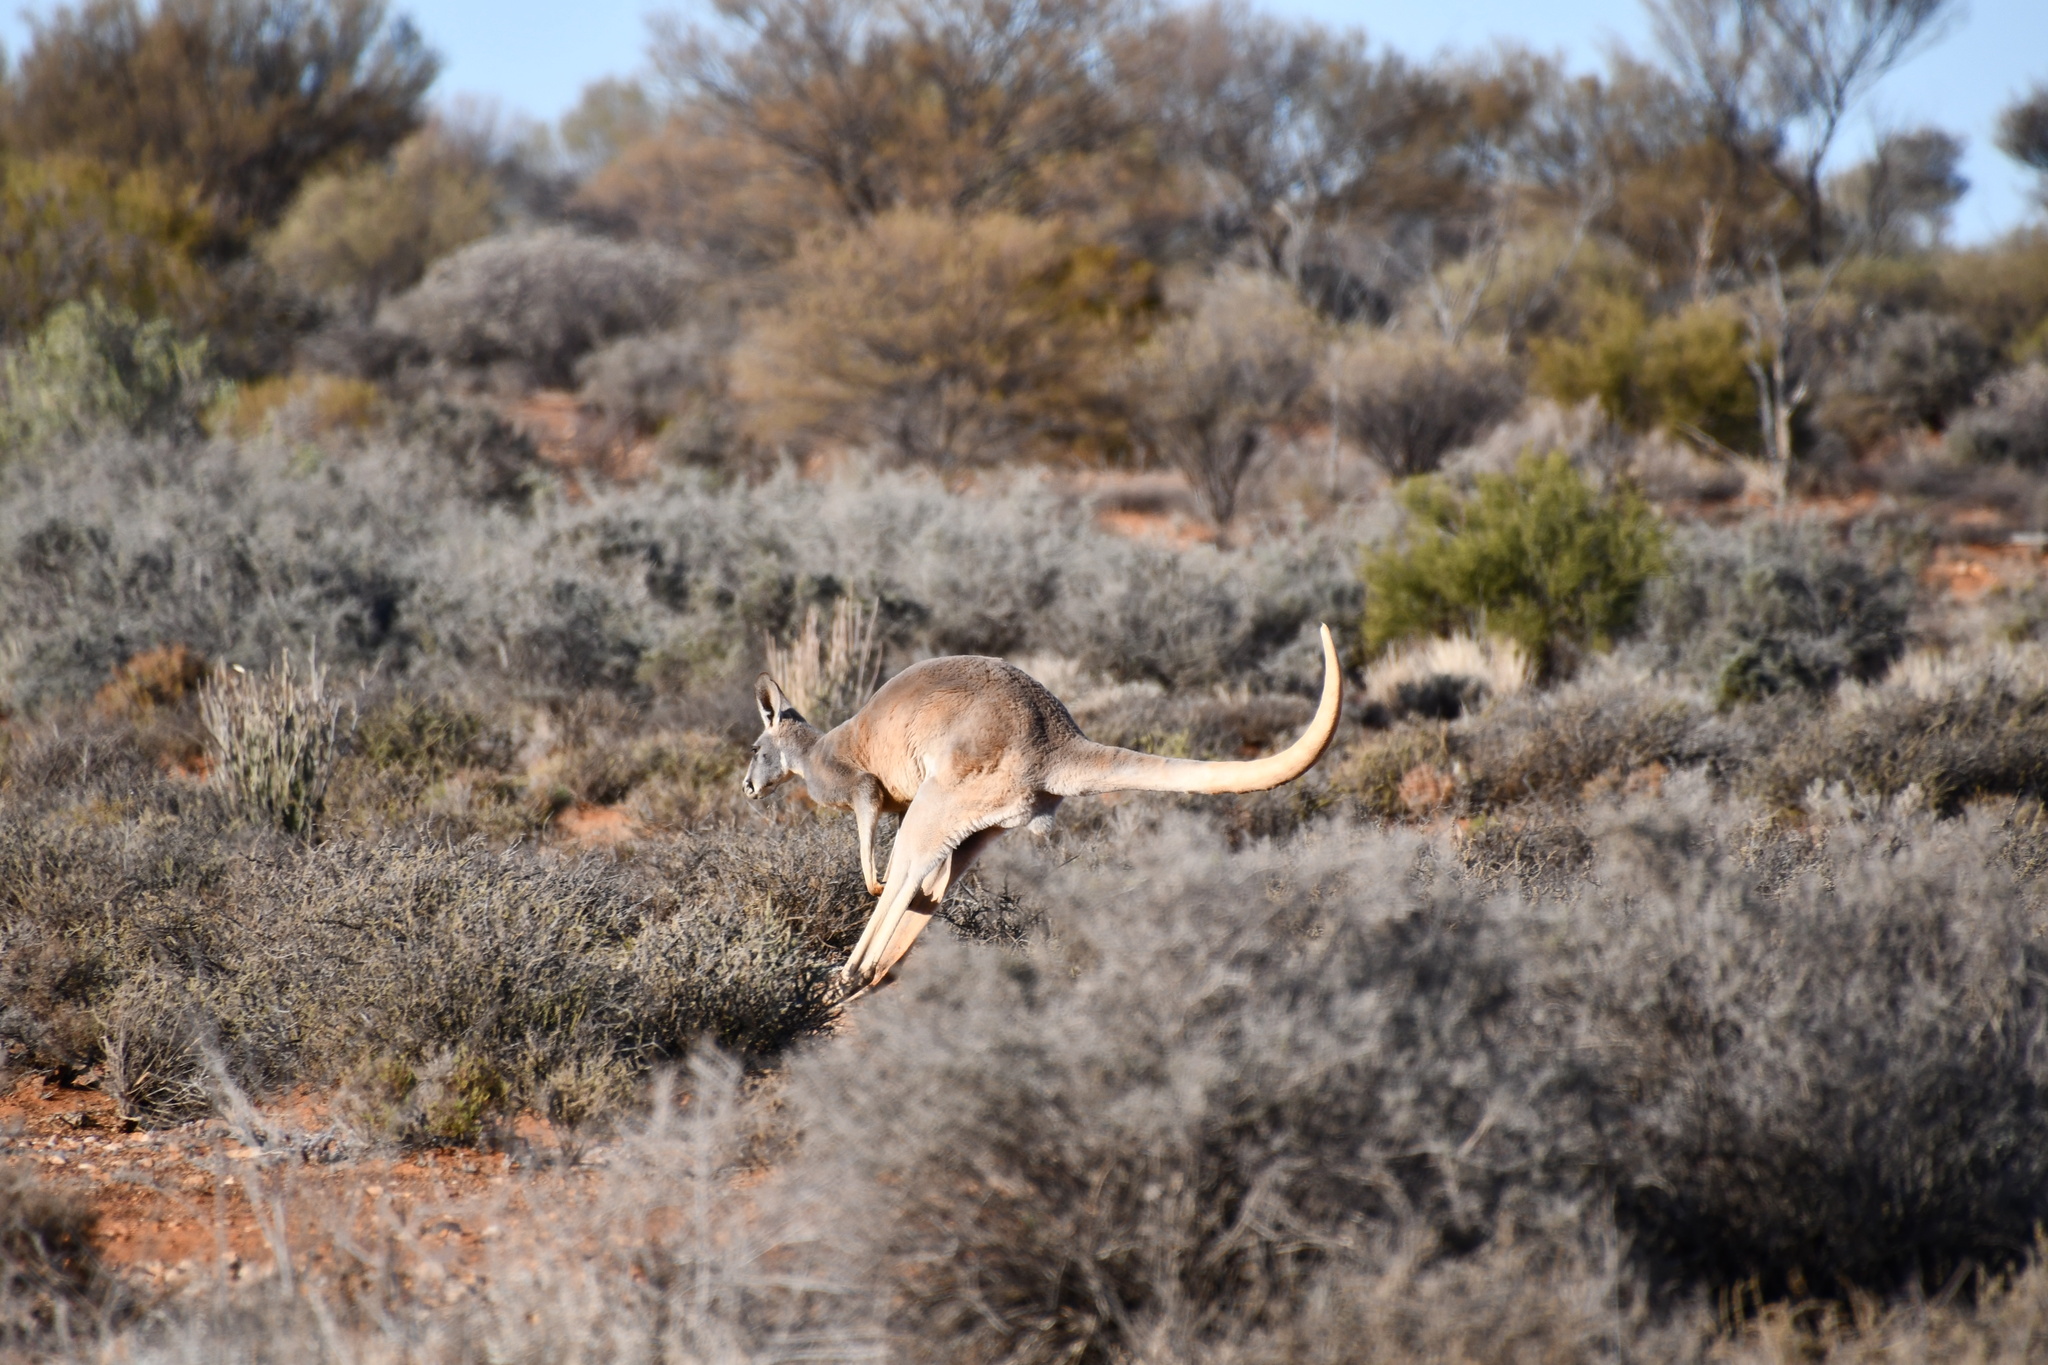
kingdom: Animalia
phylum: Chordata
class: Mammalia
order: Diprotodontia
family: Macropodidae
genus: Macropus
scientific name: Macropus rufus
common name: Red kangaroo
